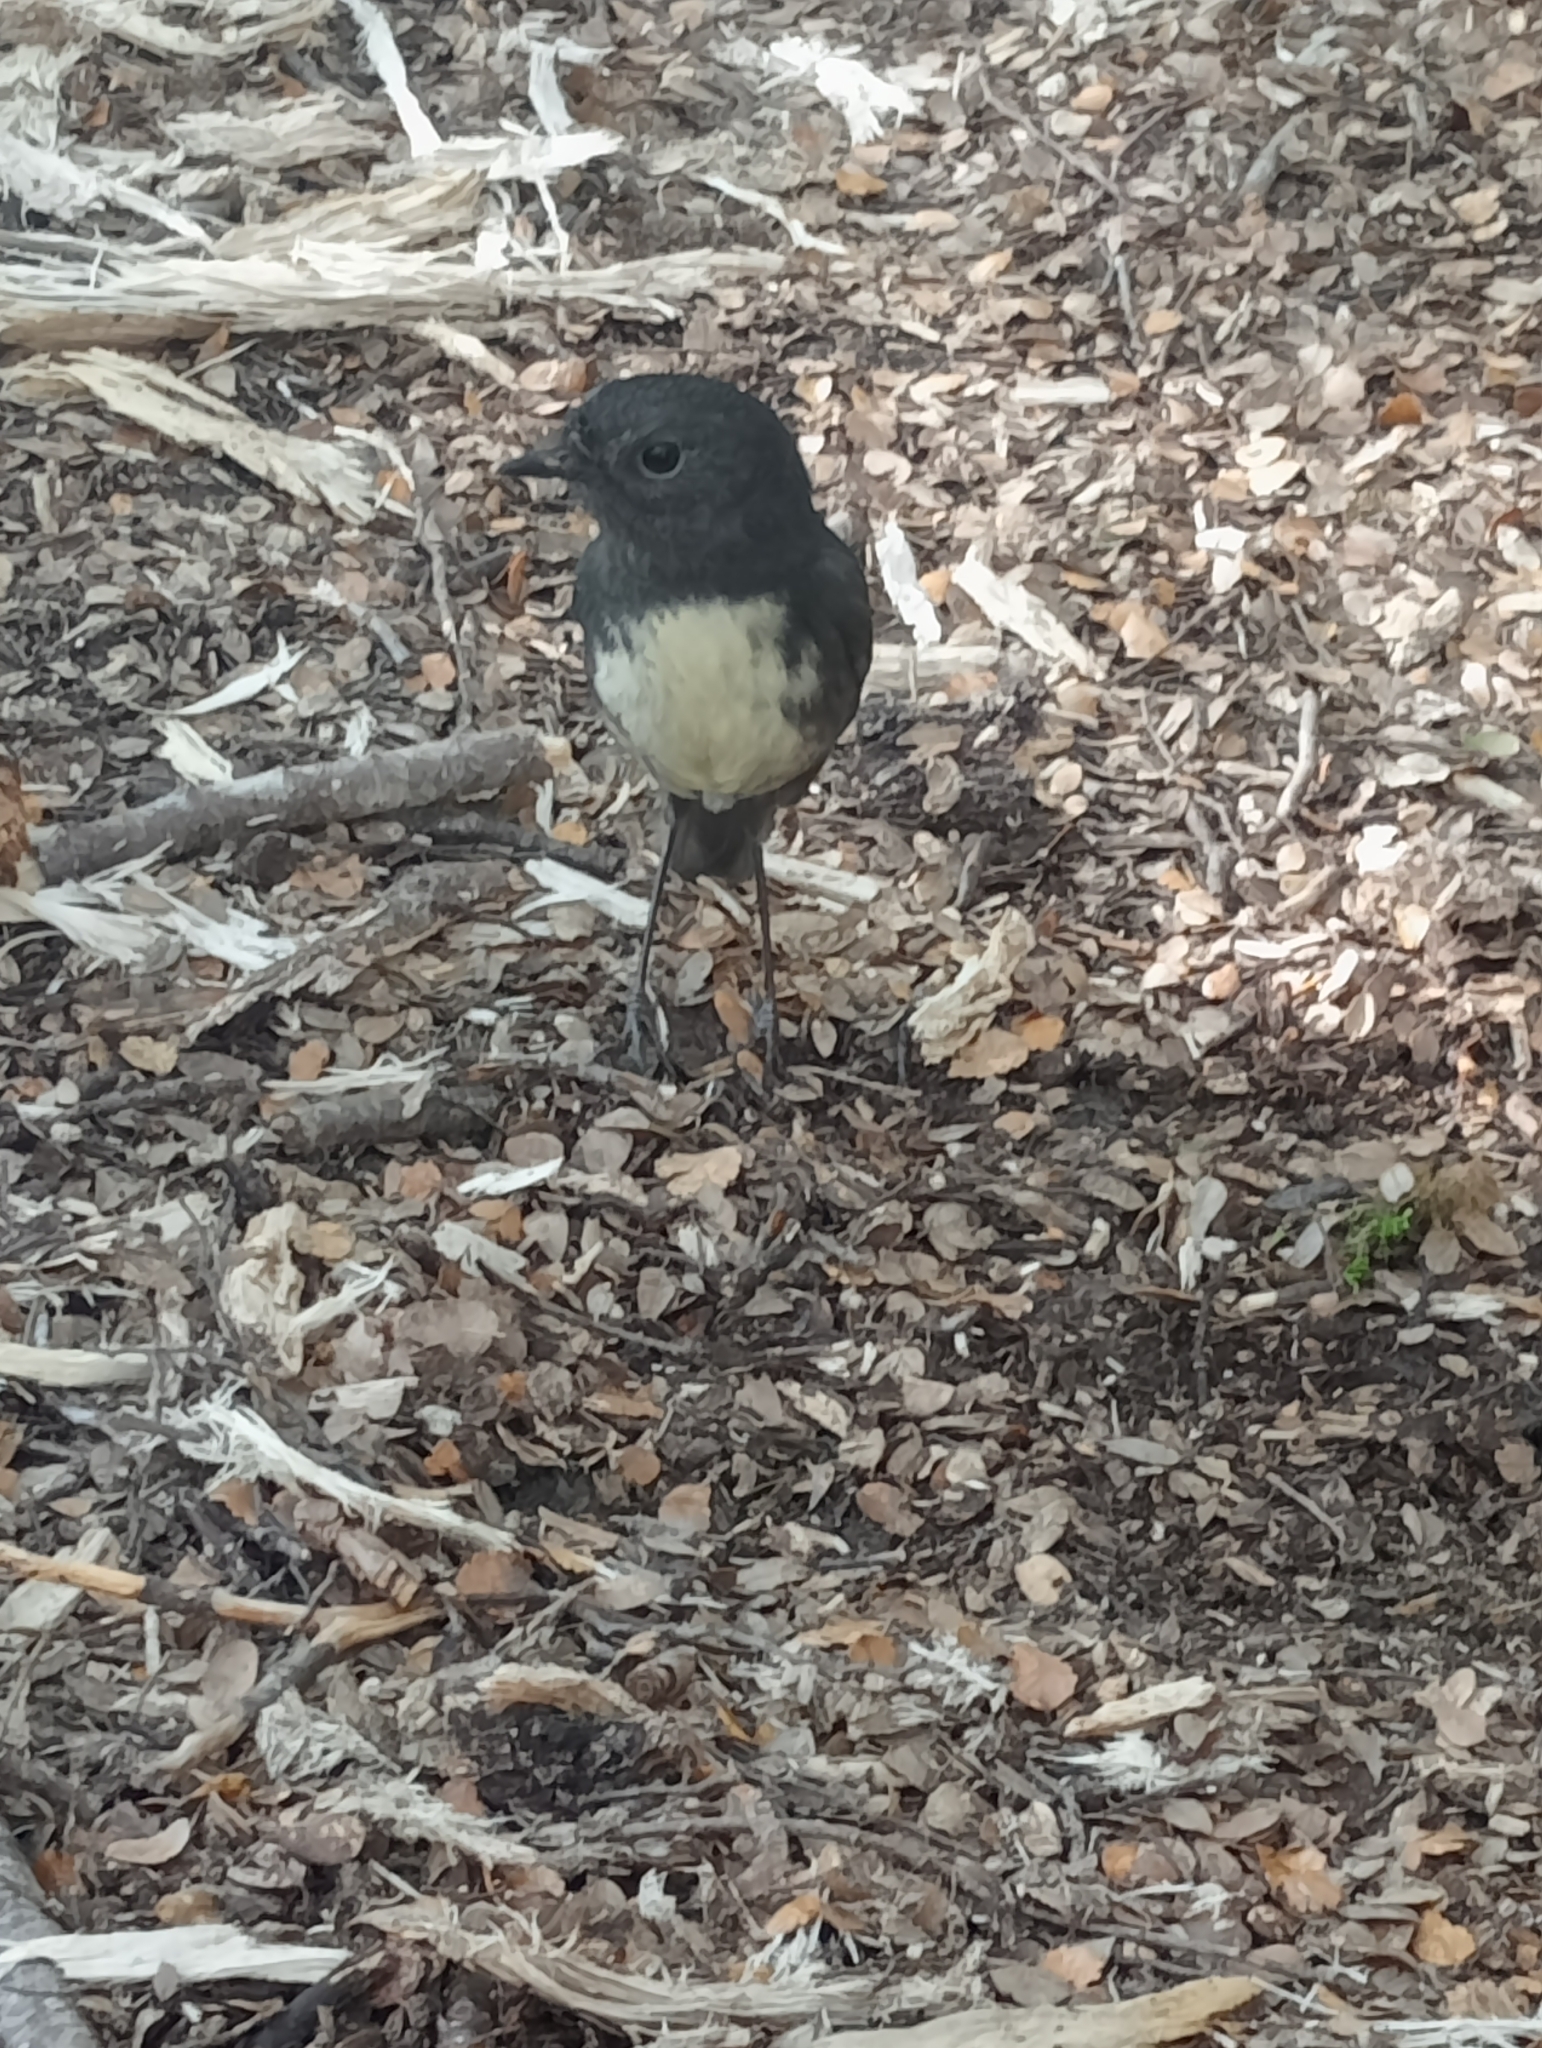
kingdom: Animalia
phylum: Chordata
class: Aves
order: Passeriformes
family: Petroicidae
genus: Petroica
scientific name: Petroica australis
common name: New zealand robin
